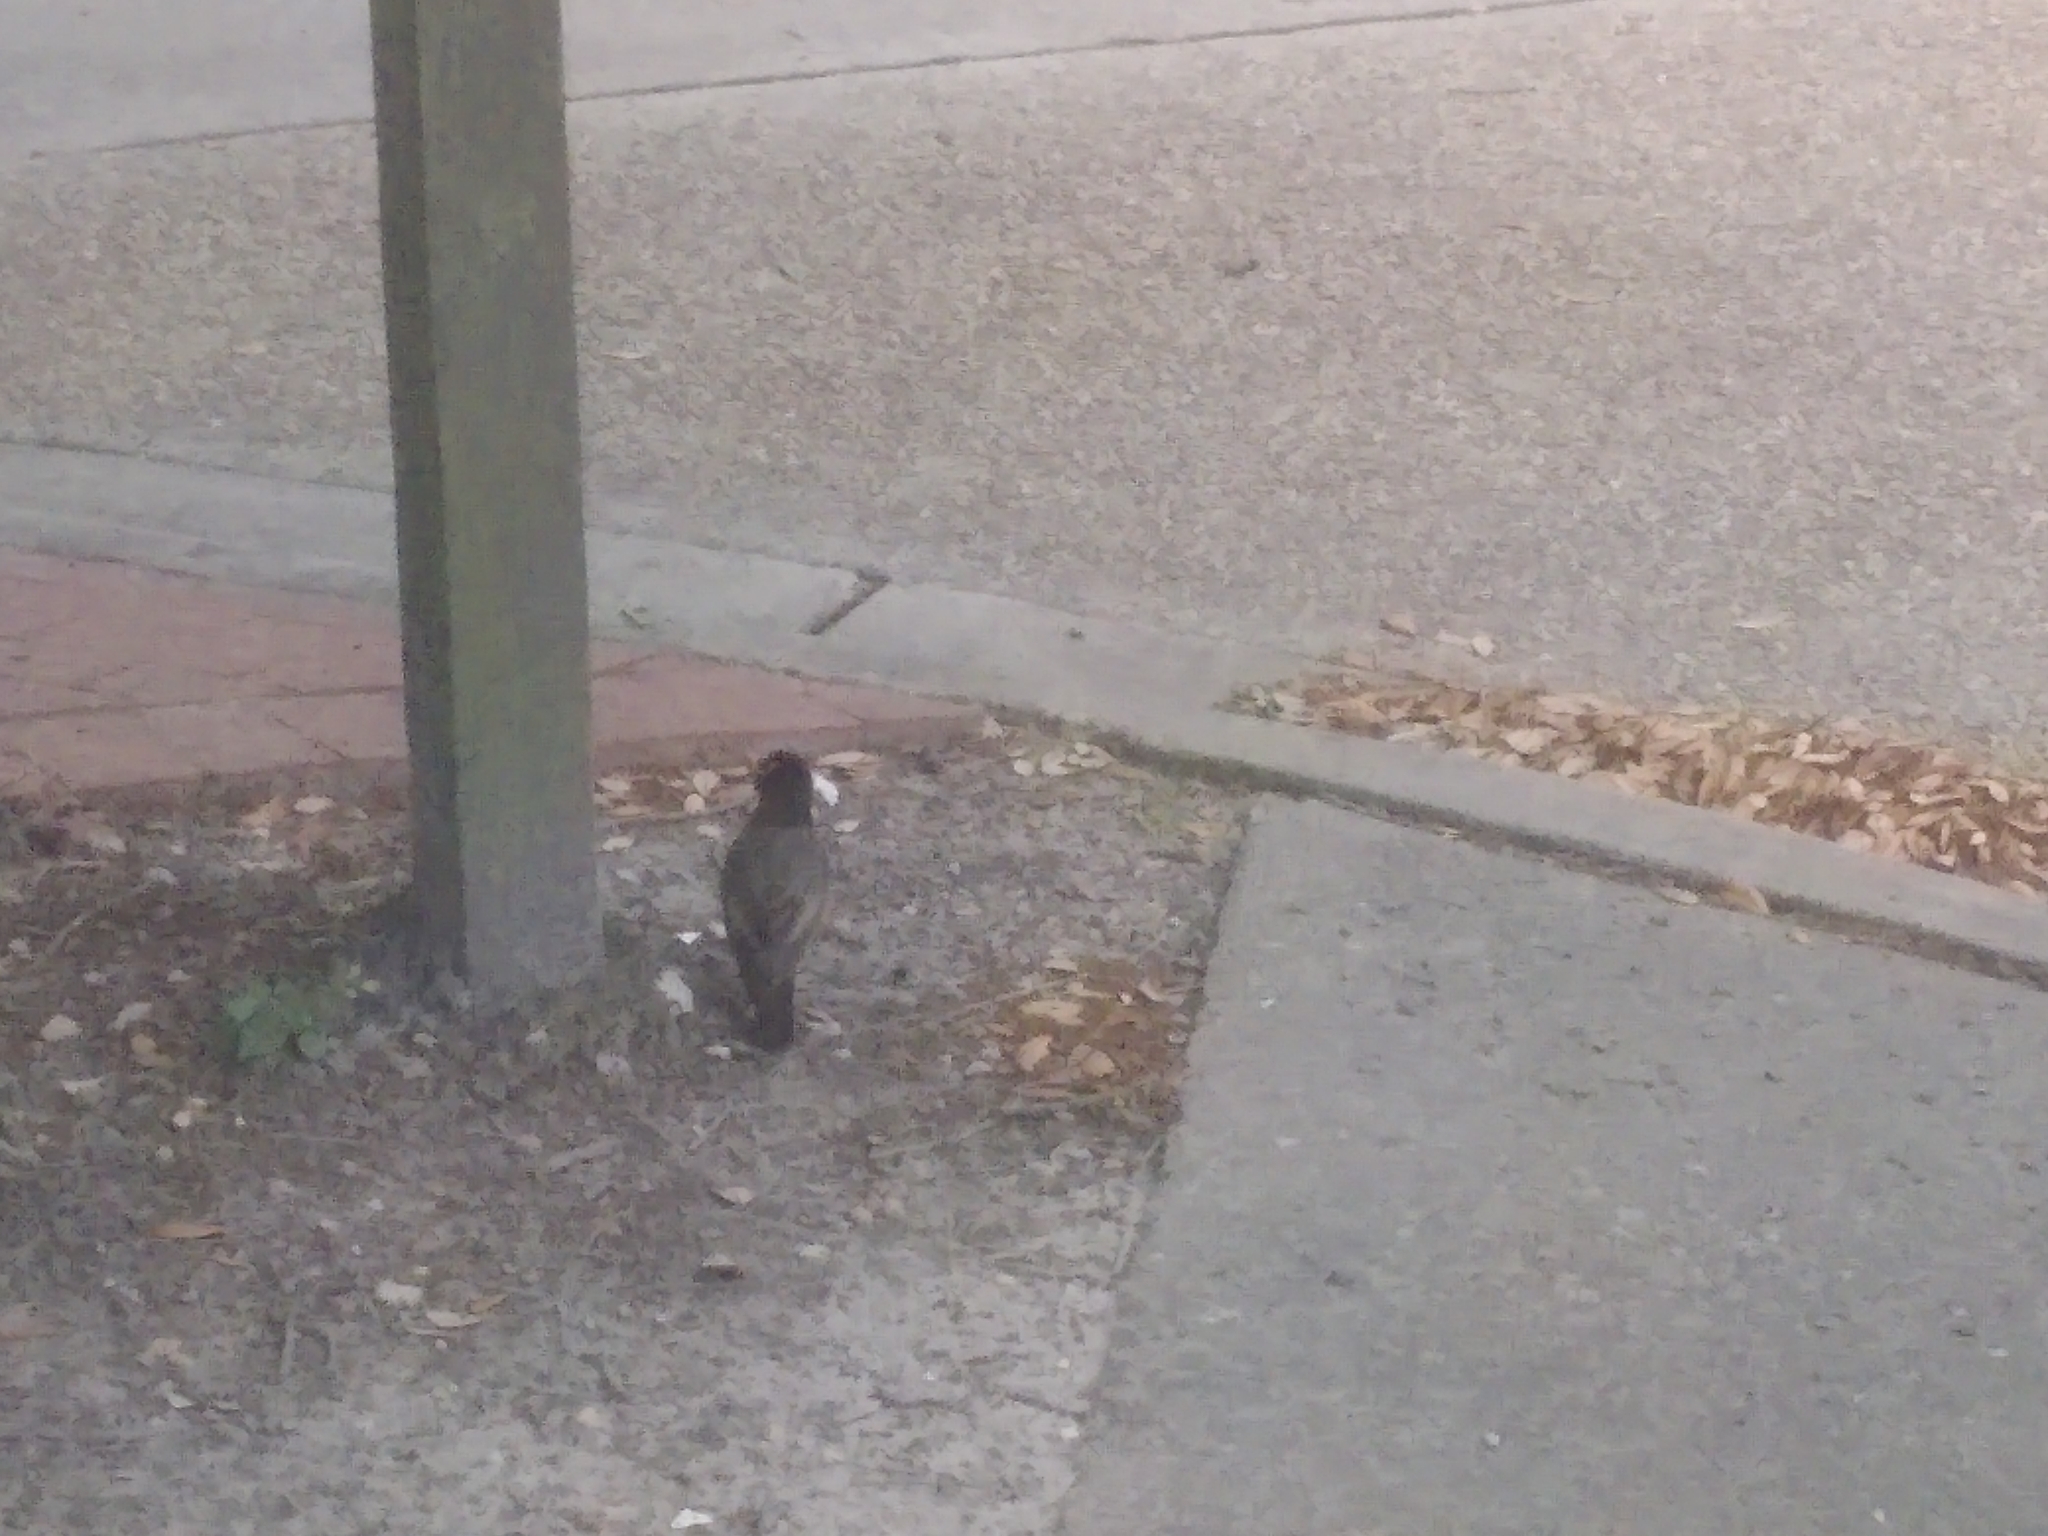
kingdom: Animalia
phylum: Chordata
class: Aves
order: Passeriformes
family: Turdidae
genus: Turdus
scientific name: Turdus migratorius
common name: American robin
